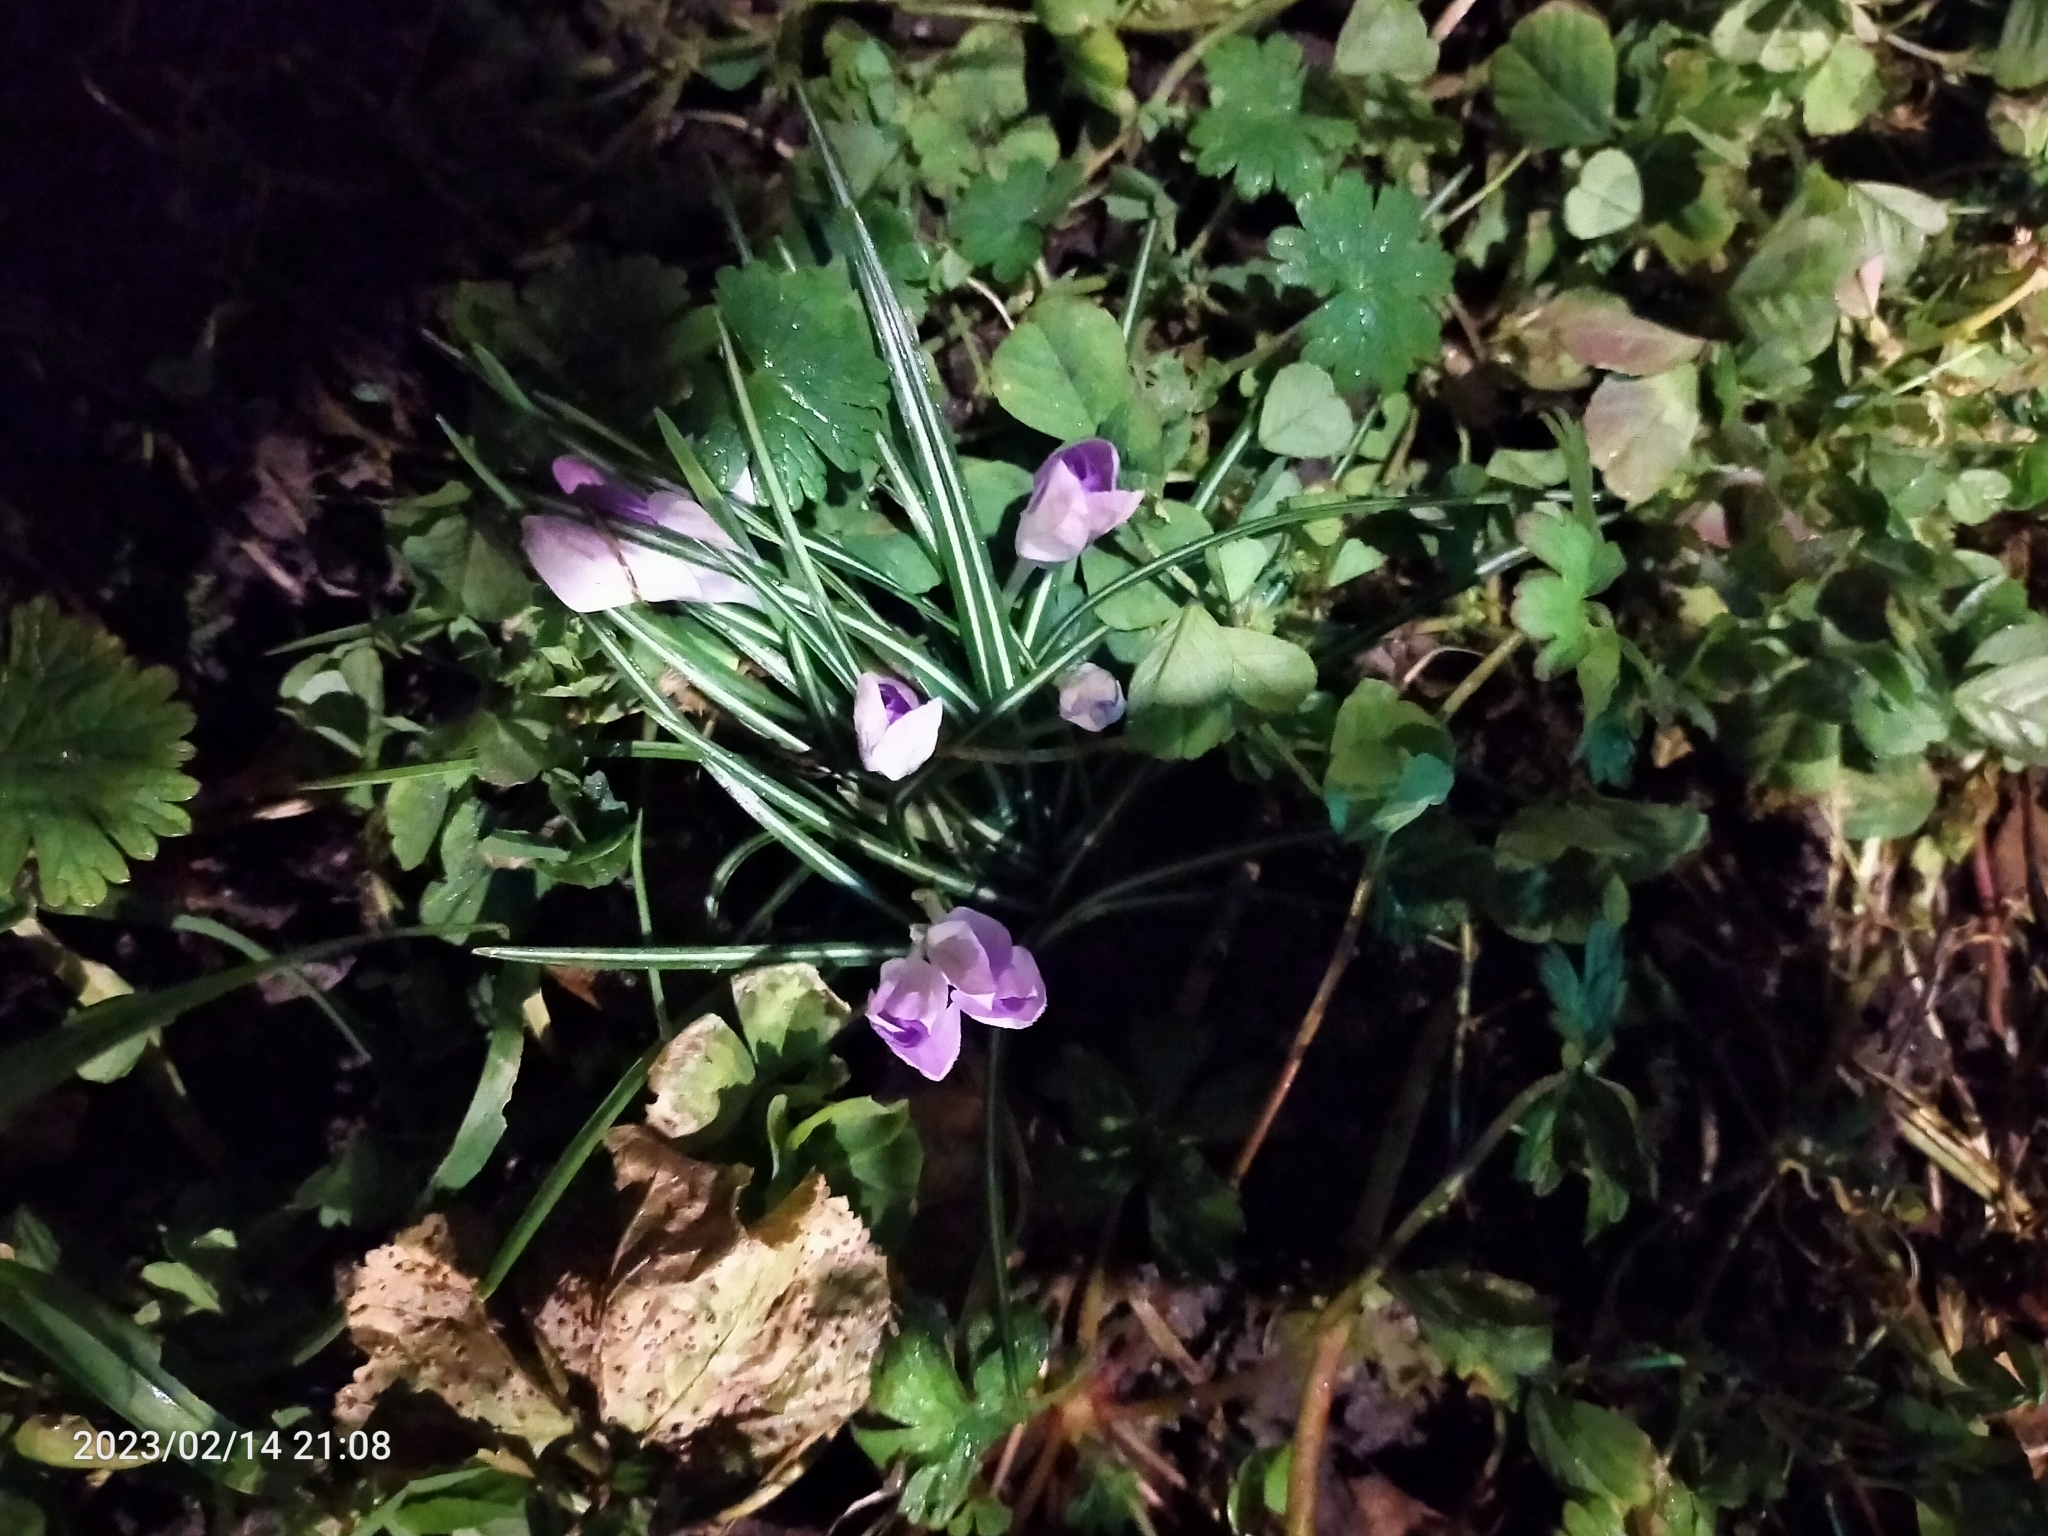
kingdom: Plantae
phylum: Tracheophyta
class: Liliopsida
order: Asparagales
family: Iridaceae
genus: Crocus
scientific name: Crocus tommasinianus
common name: Early crocus
